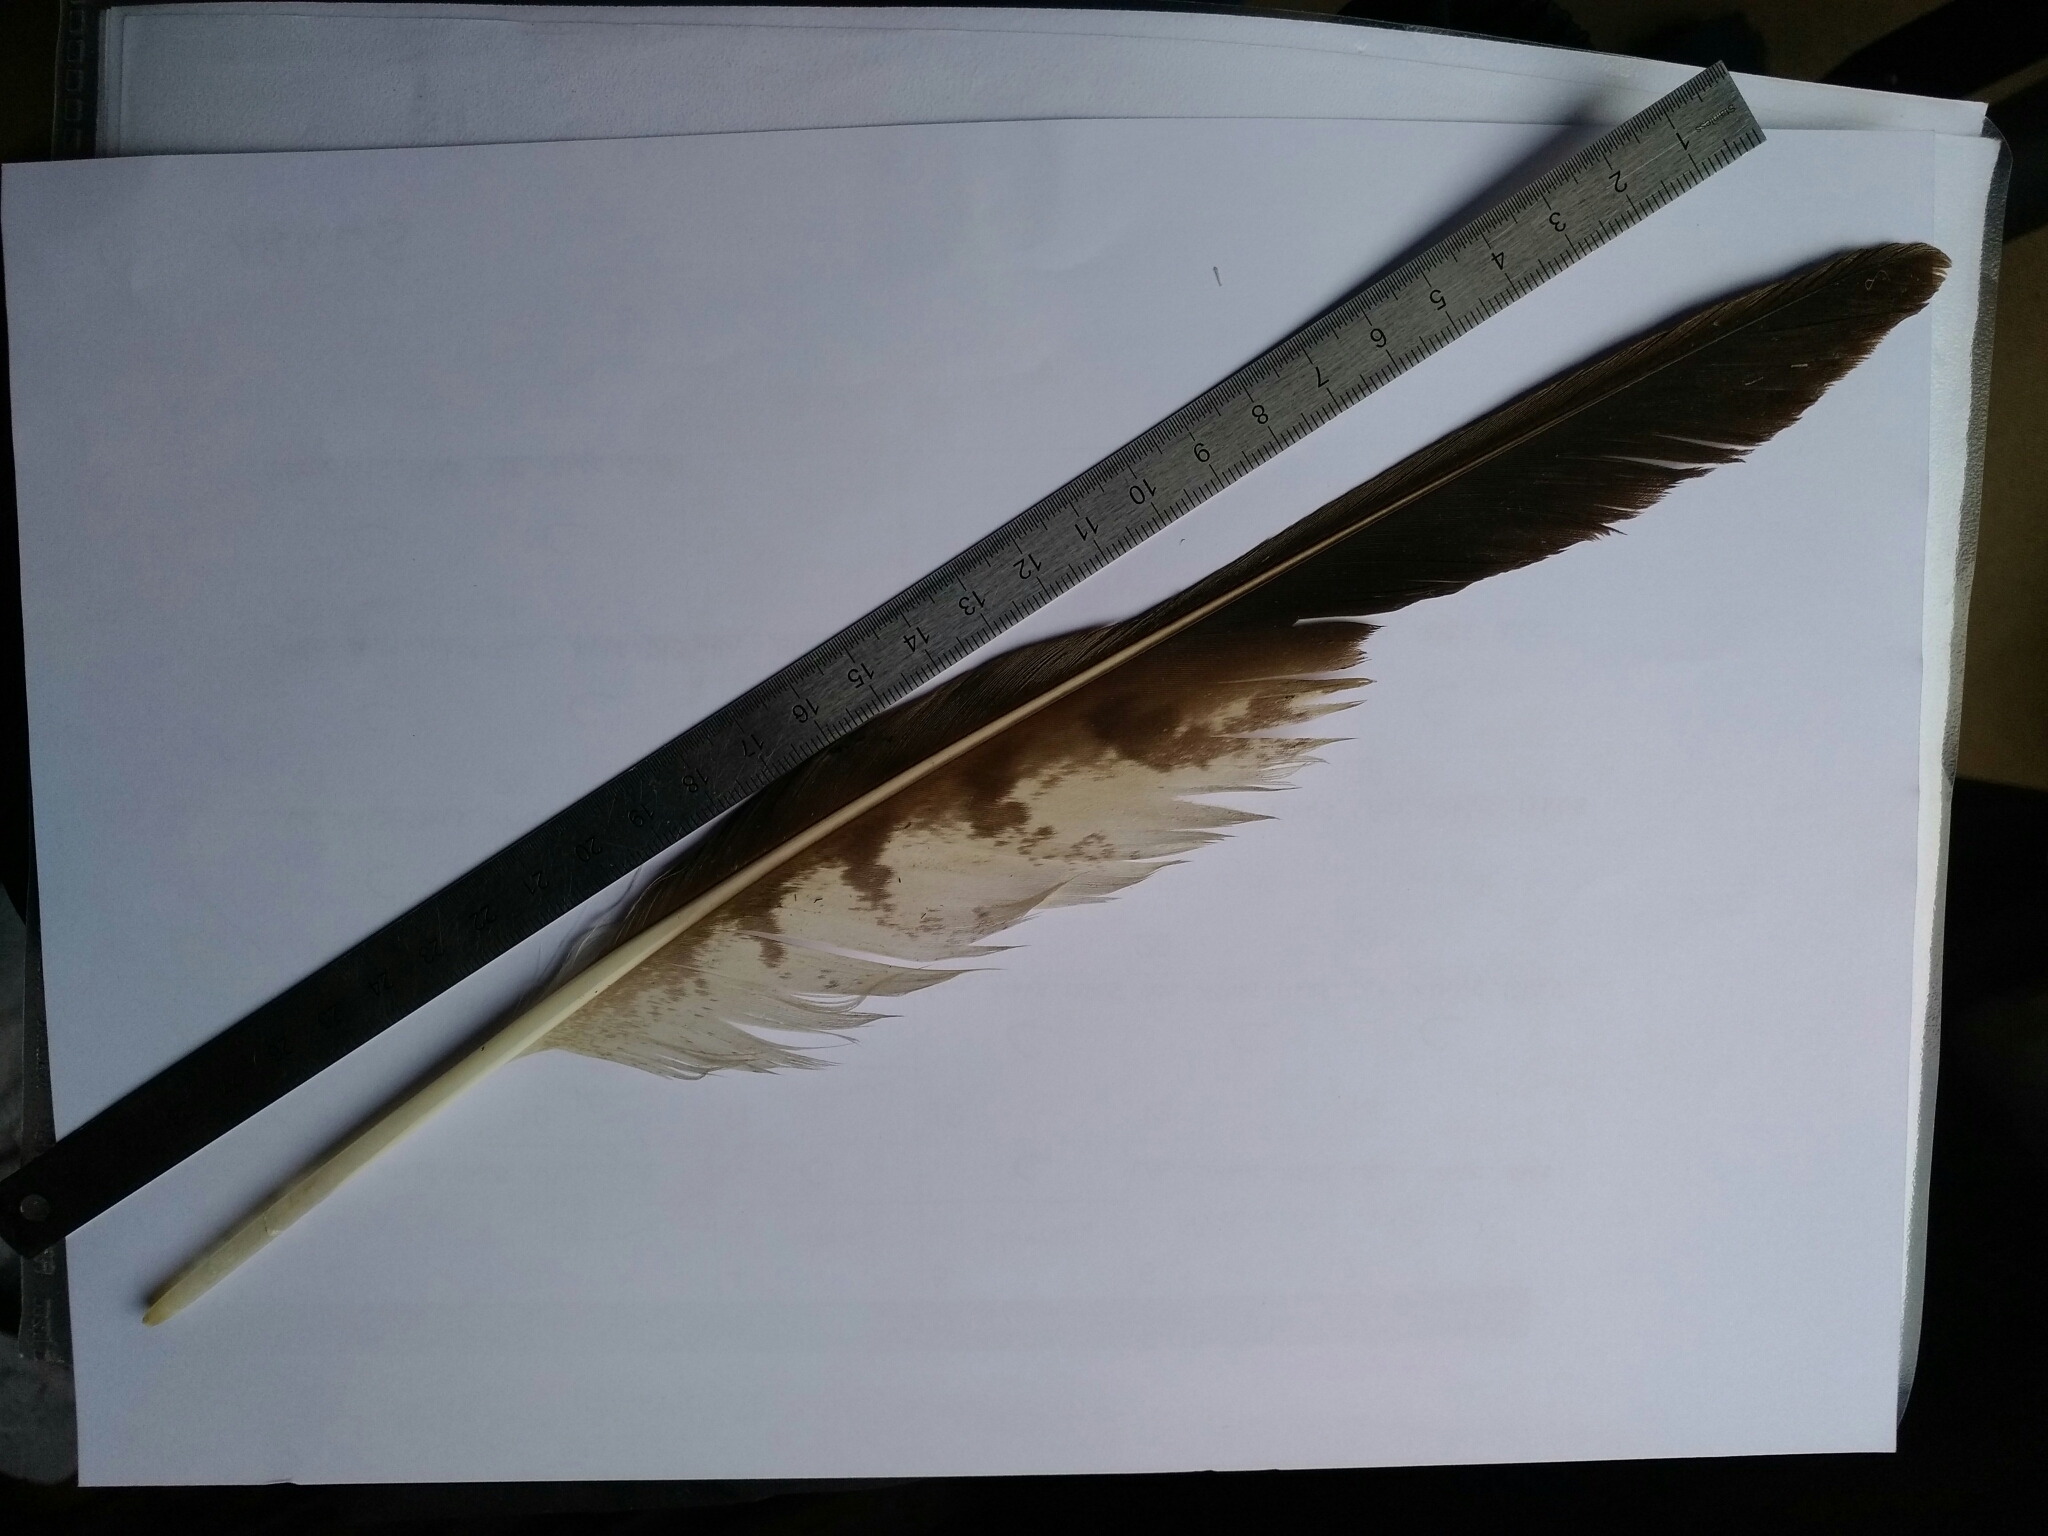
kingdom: Animalia
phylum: Chordata
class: Aves
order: Accipitriformes
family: Accipitridae
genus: Buteo
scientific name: Buteo buteo
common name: Common buzzard
